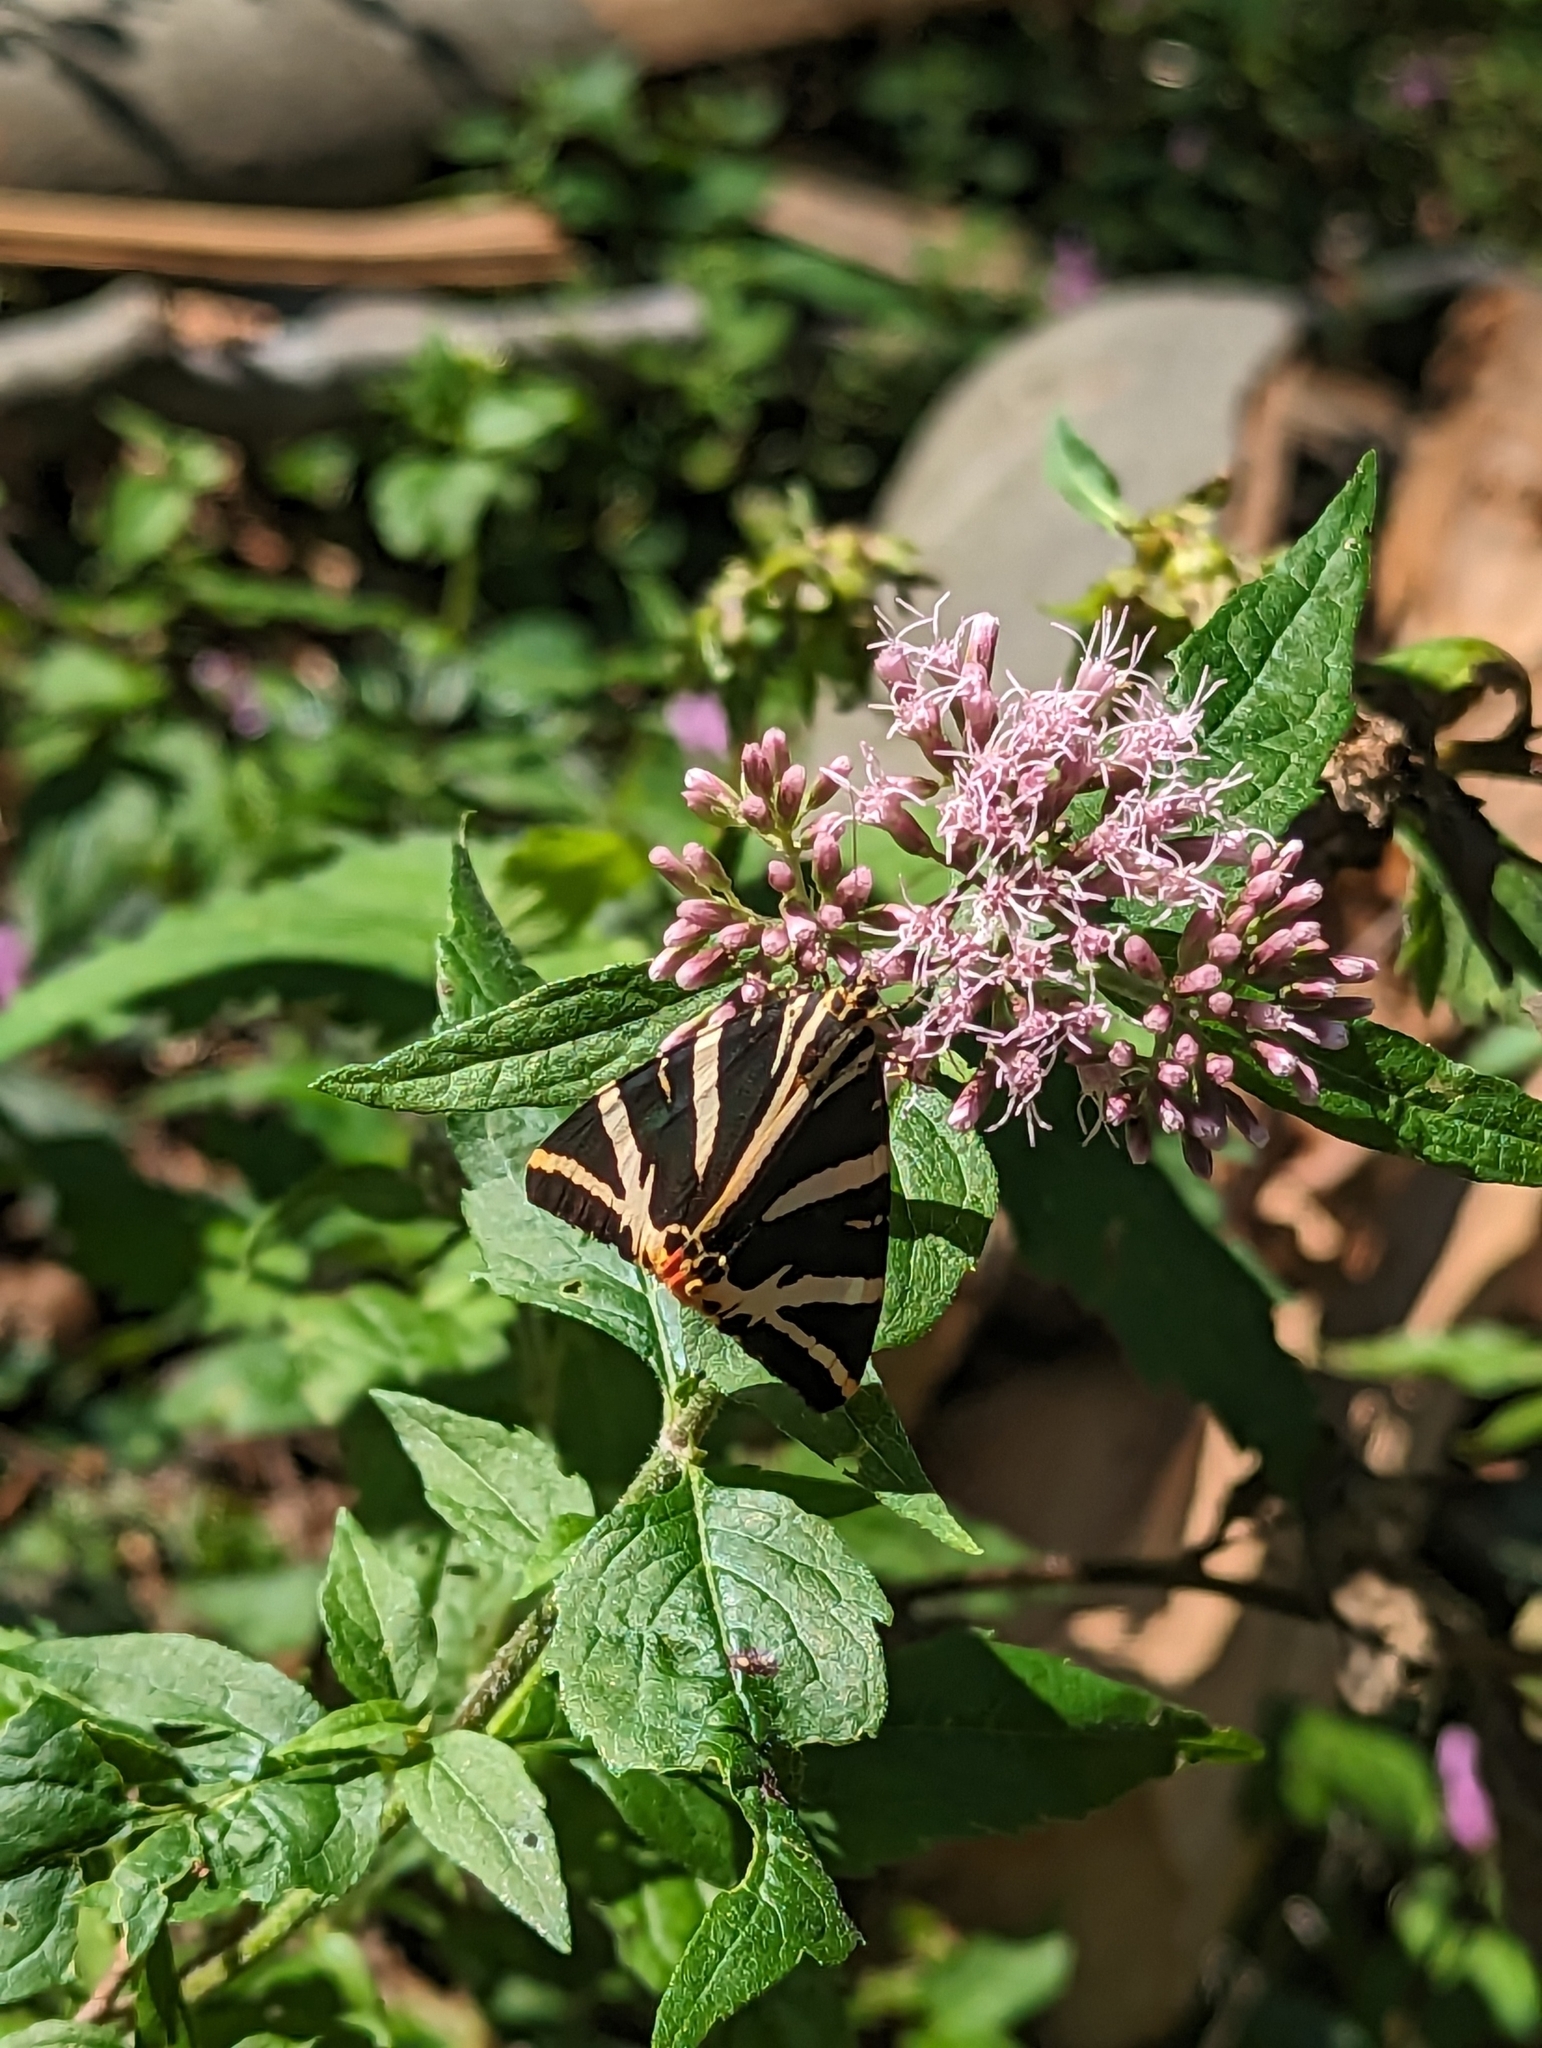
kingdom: Animalia
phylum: Arthropoda
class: Insecta
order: Lepidoptera
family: Erebidae
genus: Euplagia
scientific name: Euplagia quadripunctaria
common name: Jersey tiger
